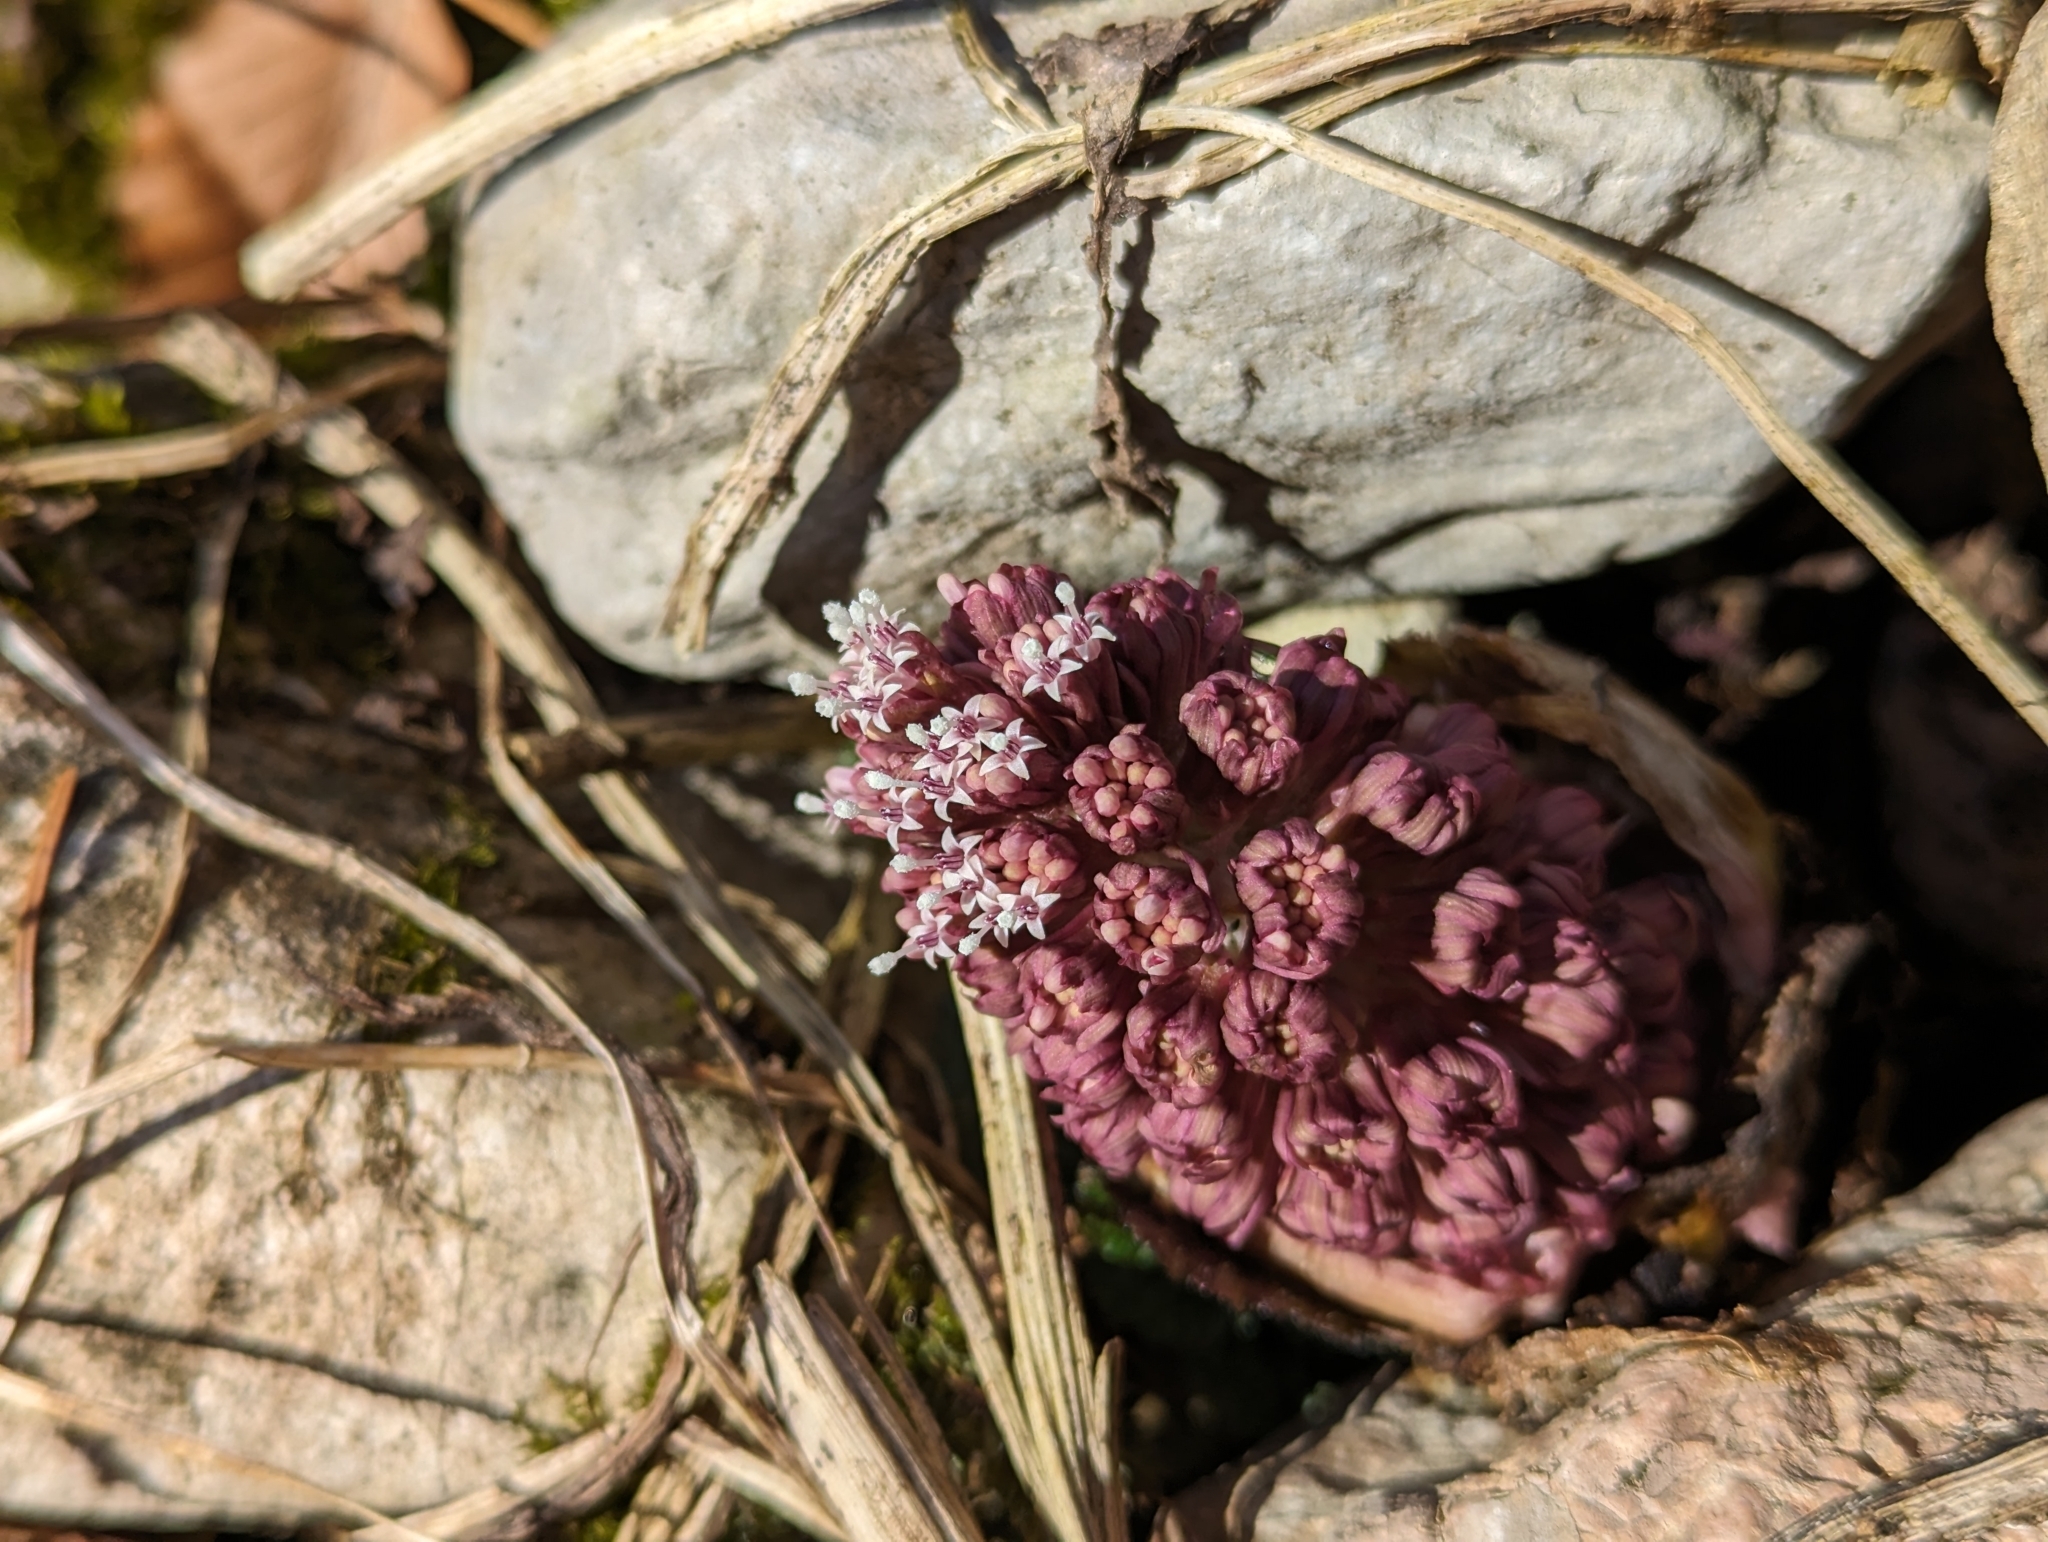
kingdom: Plantae
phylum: Tracheophyta
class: Magnoliopsida
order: Asterales
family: Asteraceae
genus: Petasites
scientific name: Petasites hybridus
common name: Butterbur
